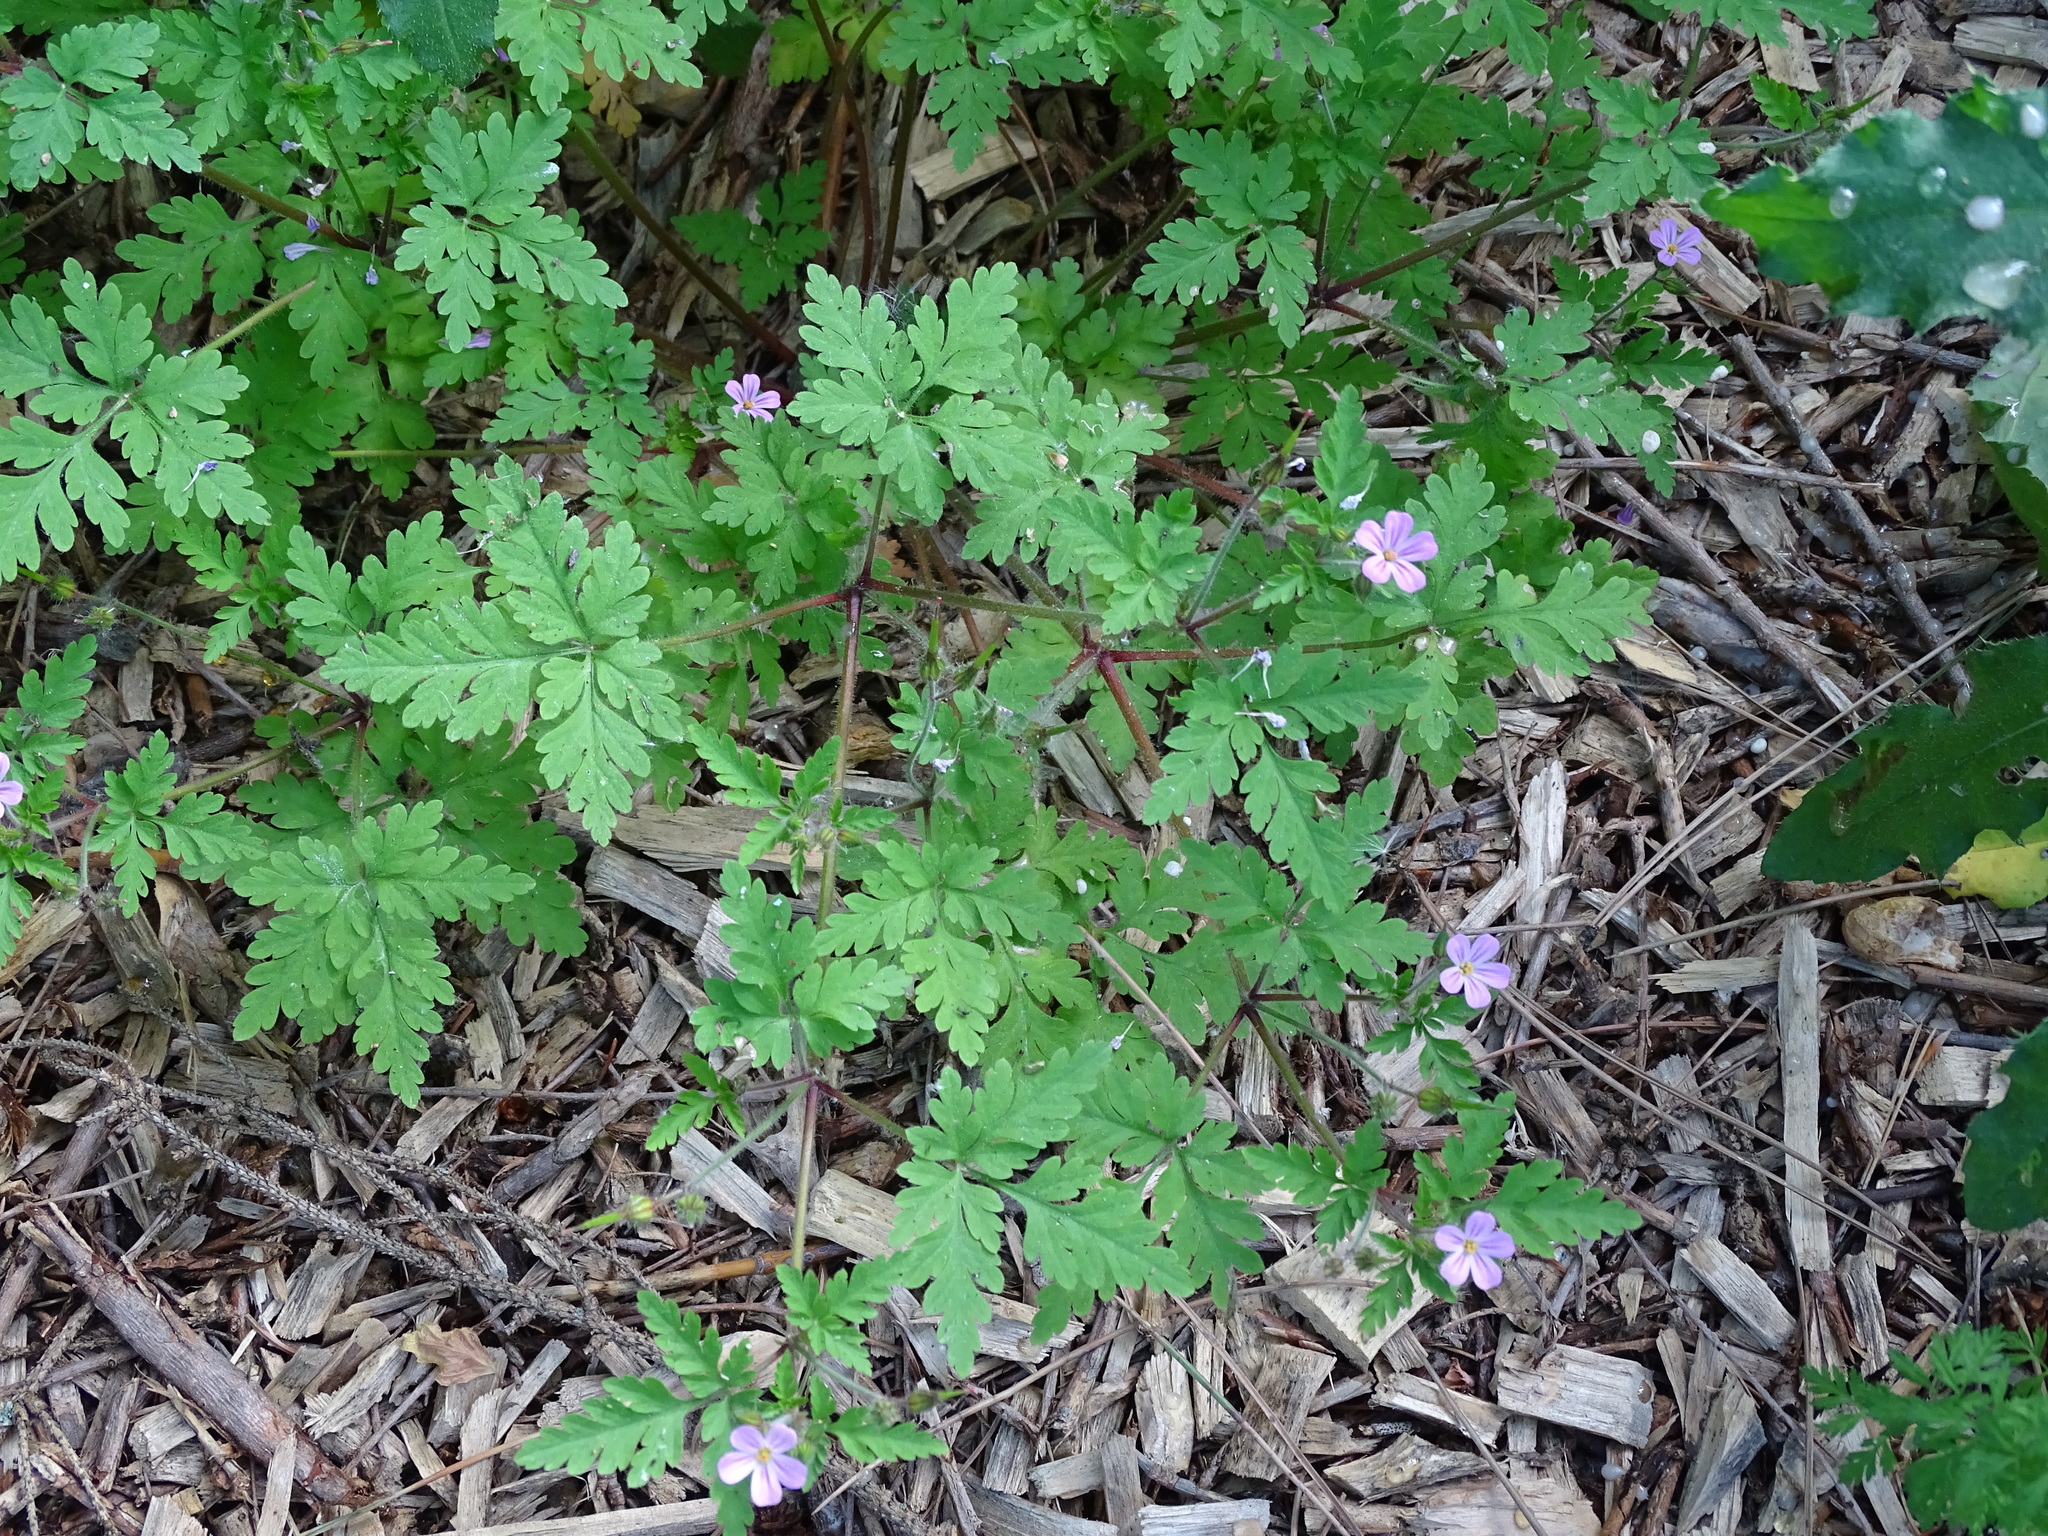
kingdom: Plantae
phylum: Tracheophyta
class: Magnoliopsida
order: Geraniales
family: Geraniaceae
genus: Geranium
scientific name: Geranium robertianum
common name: Herb-robert
